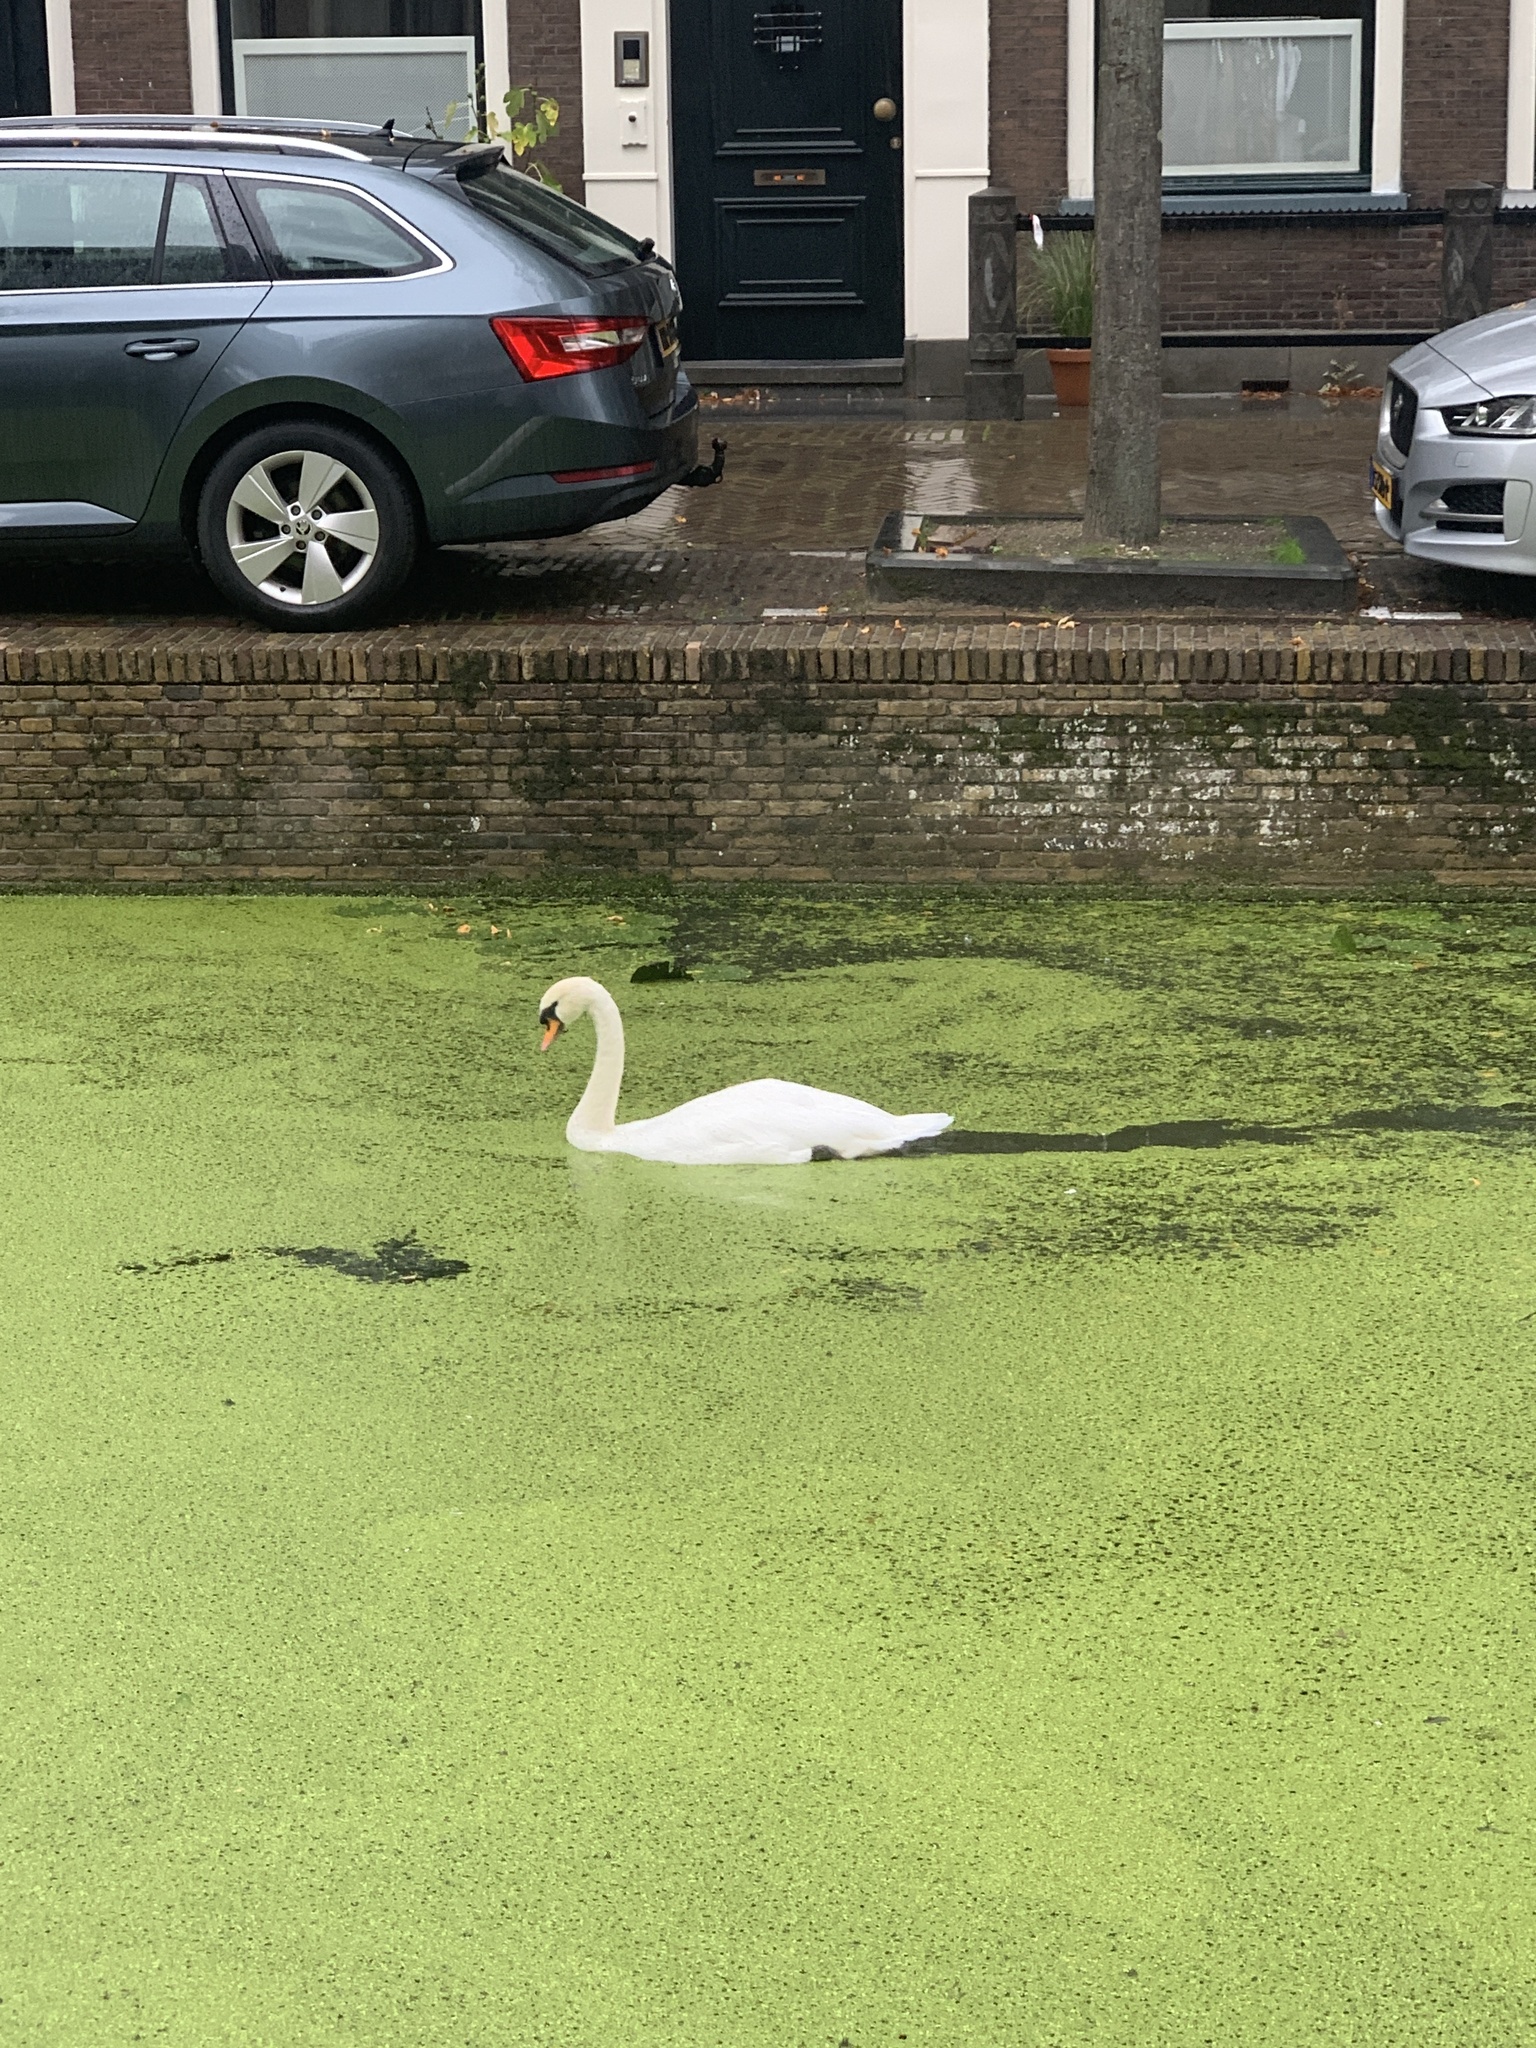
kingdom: Animalia
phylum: Chordata
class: Aves
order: Anseriformes
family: Anatidae
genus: Cygnus
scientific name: Cygnus olor
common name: Mute swan
